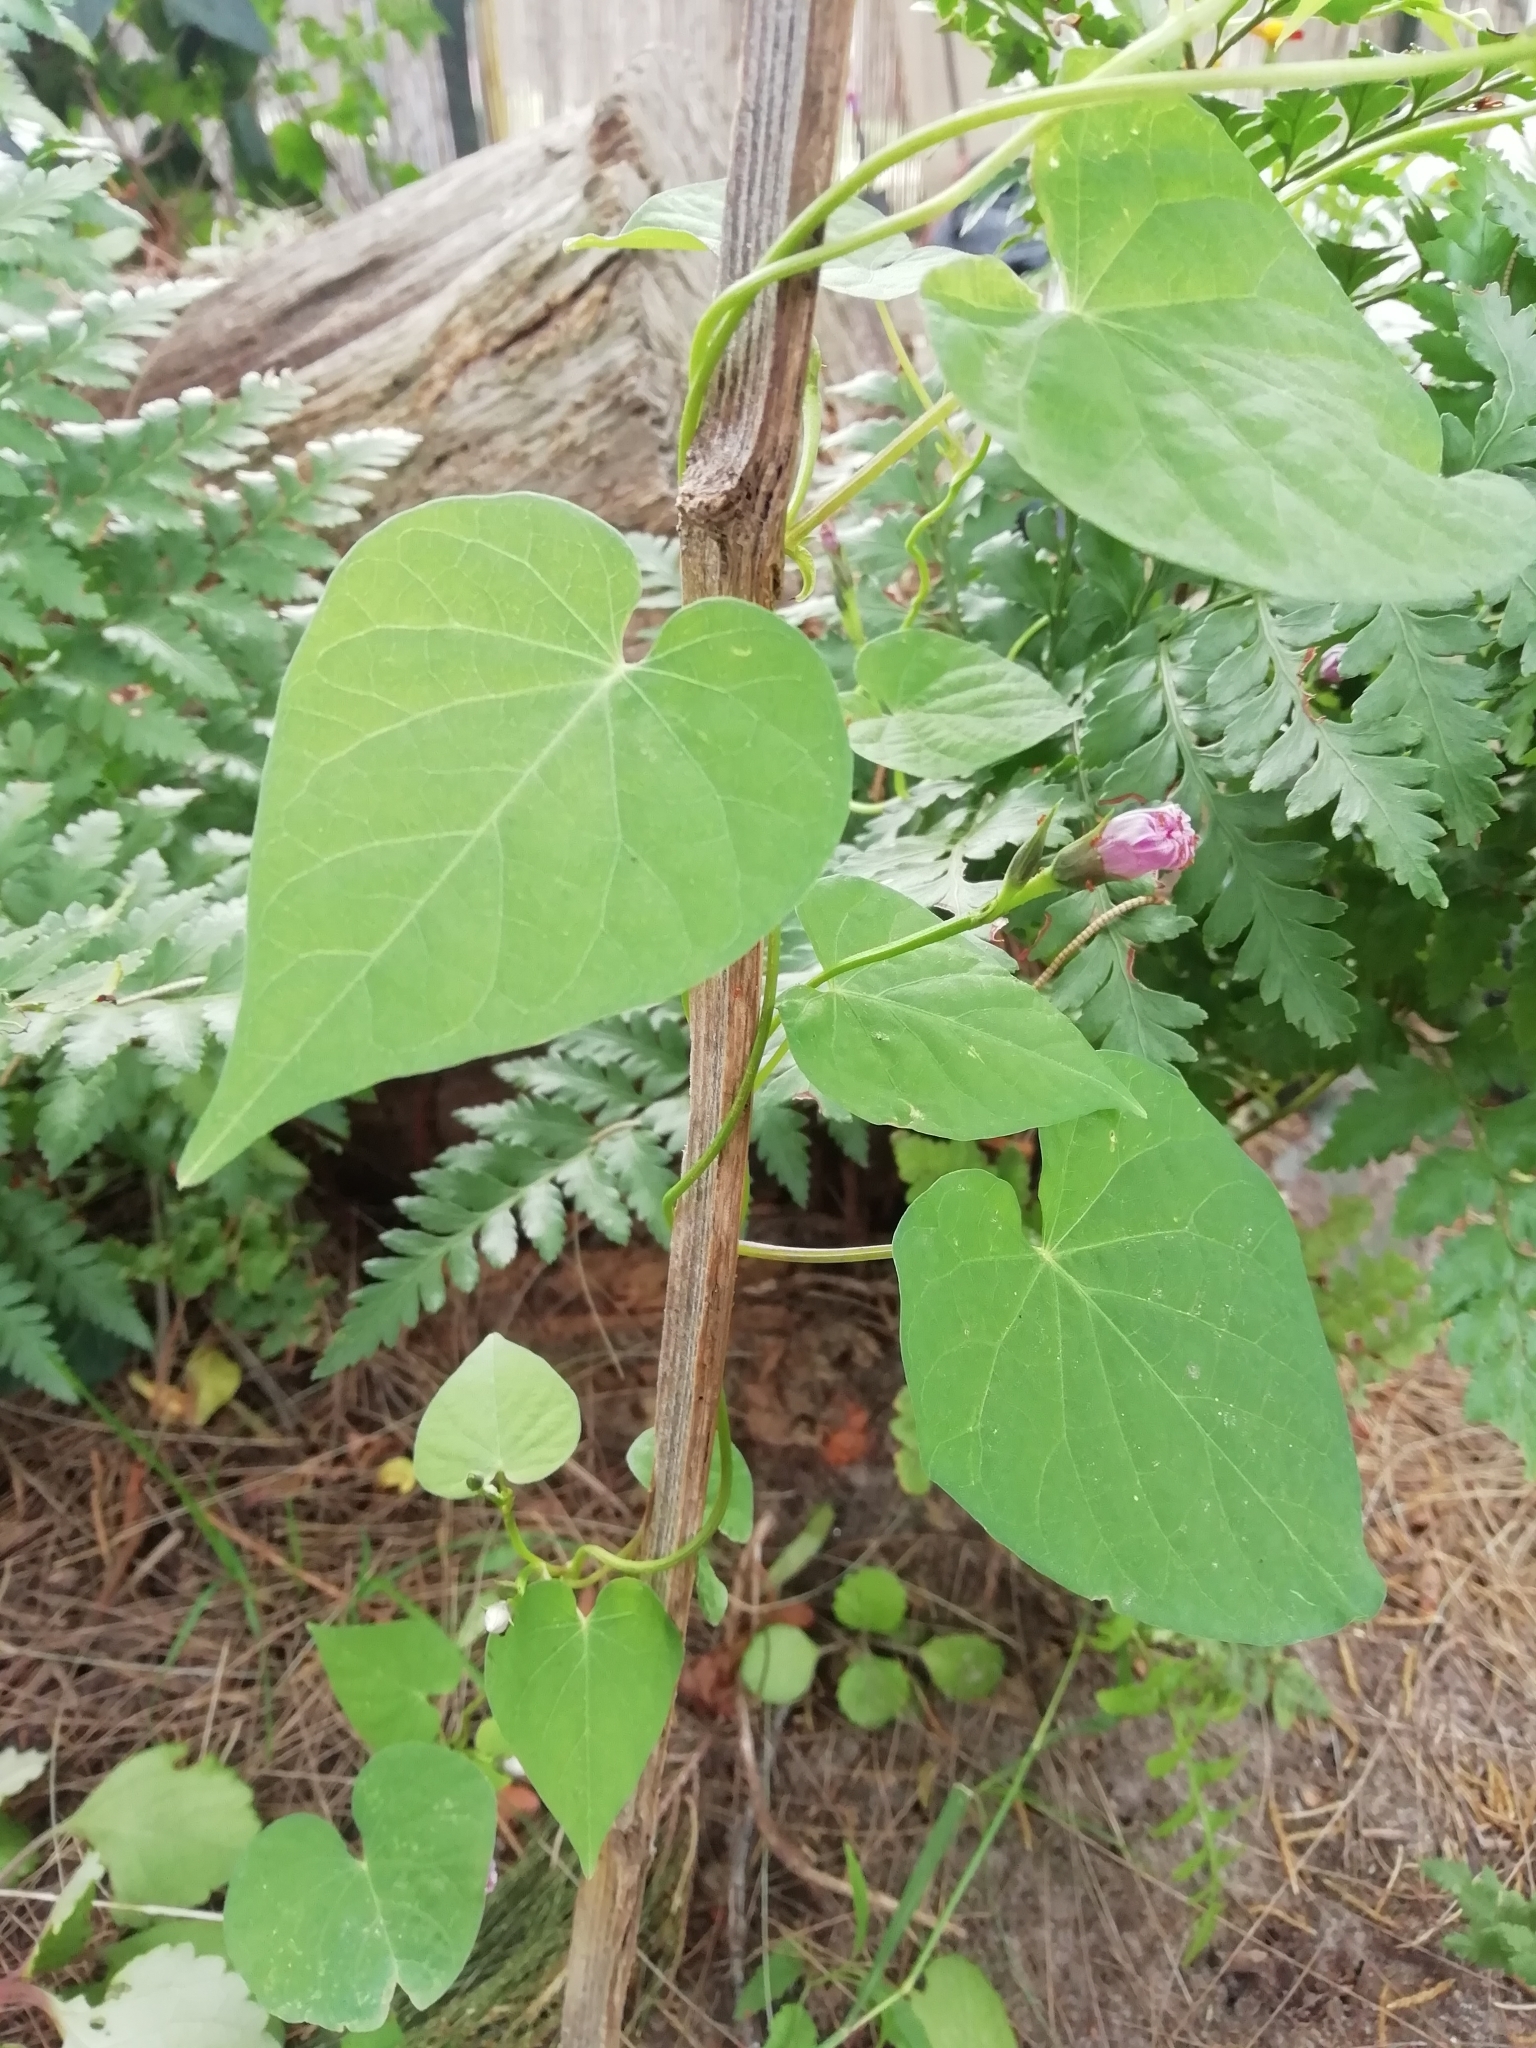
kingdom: Plantae
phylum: Tracheophyta
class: Magnoliopsida
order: Solanales
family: Convolvulaceae
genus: Ipomoea
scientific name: Ipomoea grandifolia
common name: Aiea morning glory
